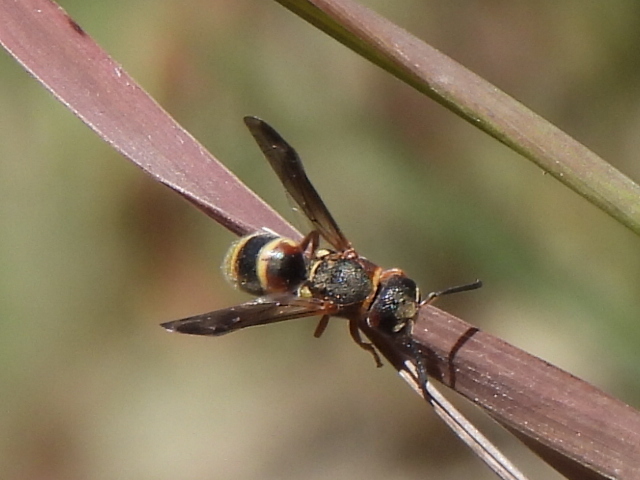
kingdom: Animalia
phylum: Arthropoda
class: Insecta
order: Hymenoptera
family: Eumenidae
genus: Euodynerus
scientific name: Euodynerus annulatus
